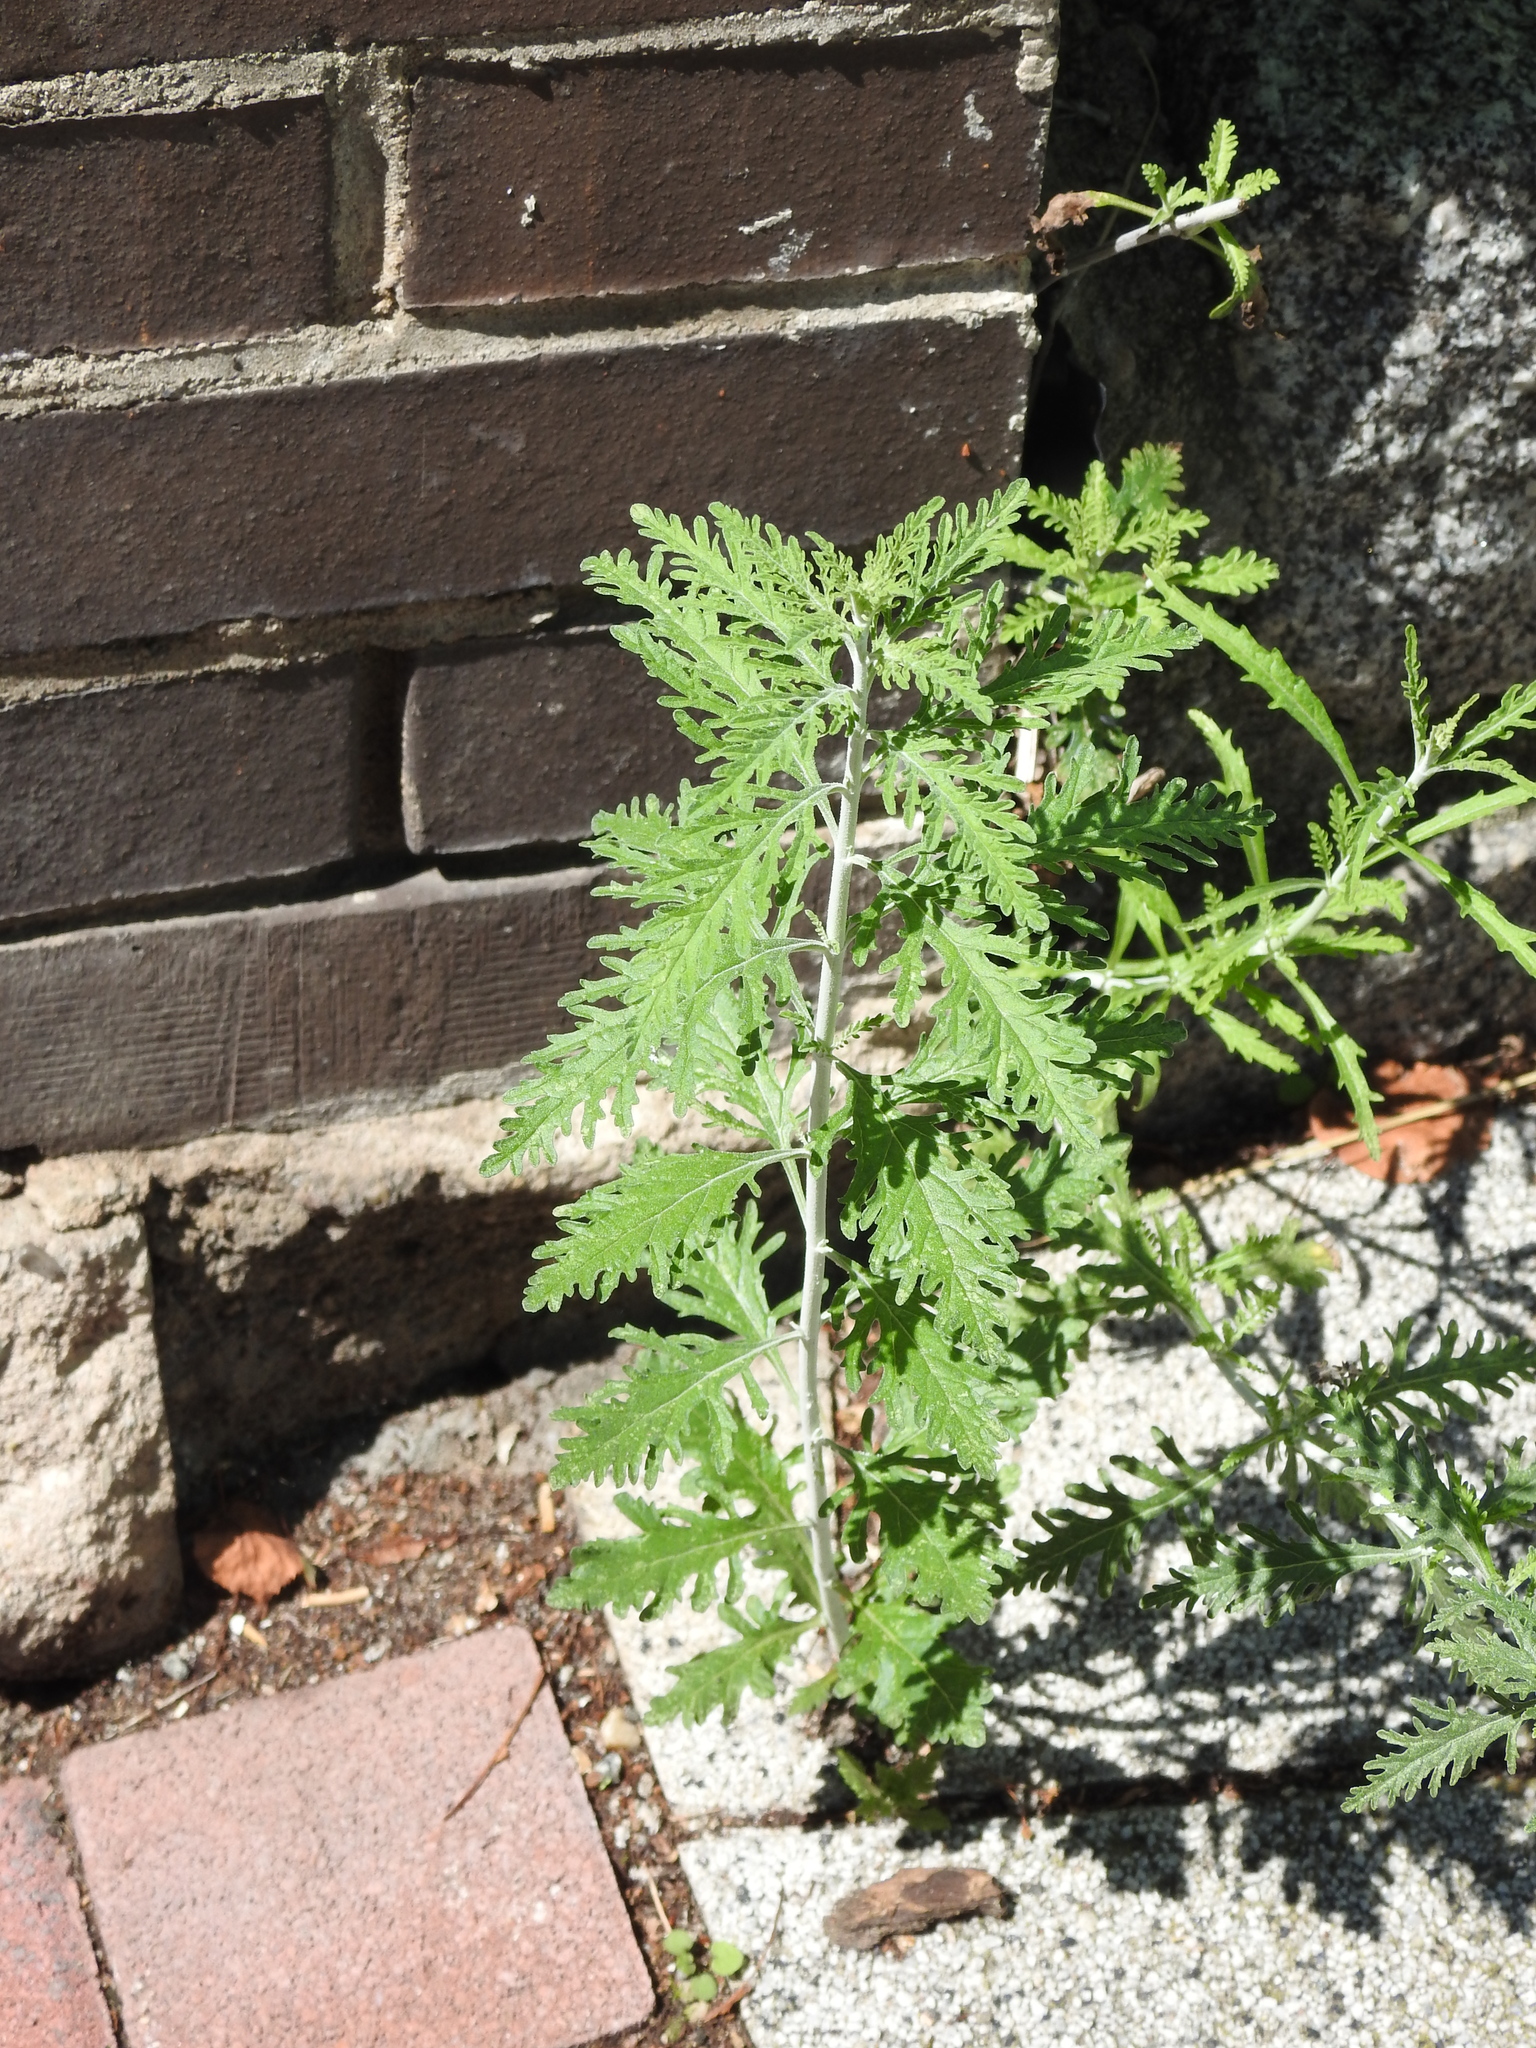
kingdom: Plantae
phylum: Tracheophyta
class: Magnoliopsida
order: Lamiales
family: Lamiaceae
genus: Salvia
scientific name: Salvia
